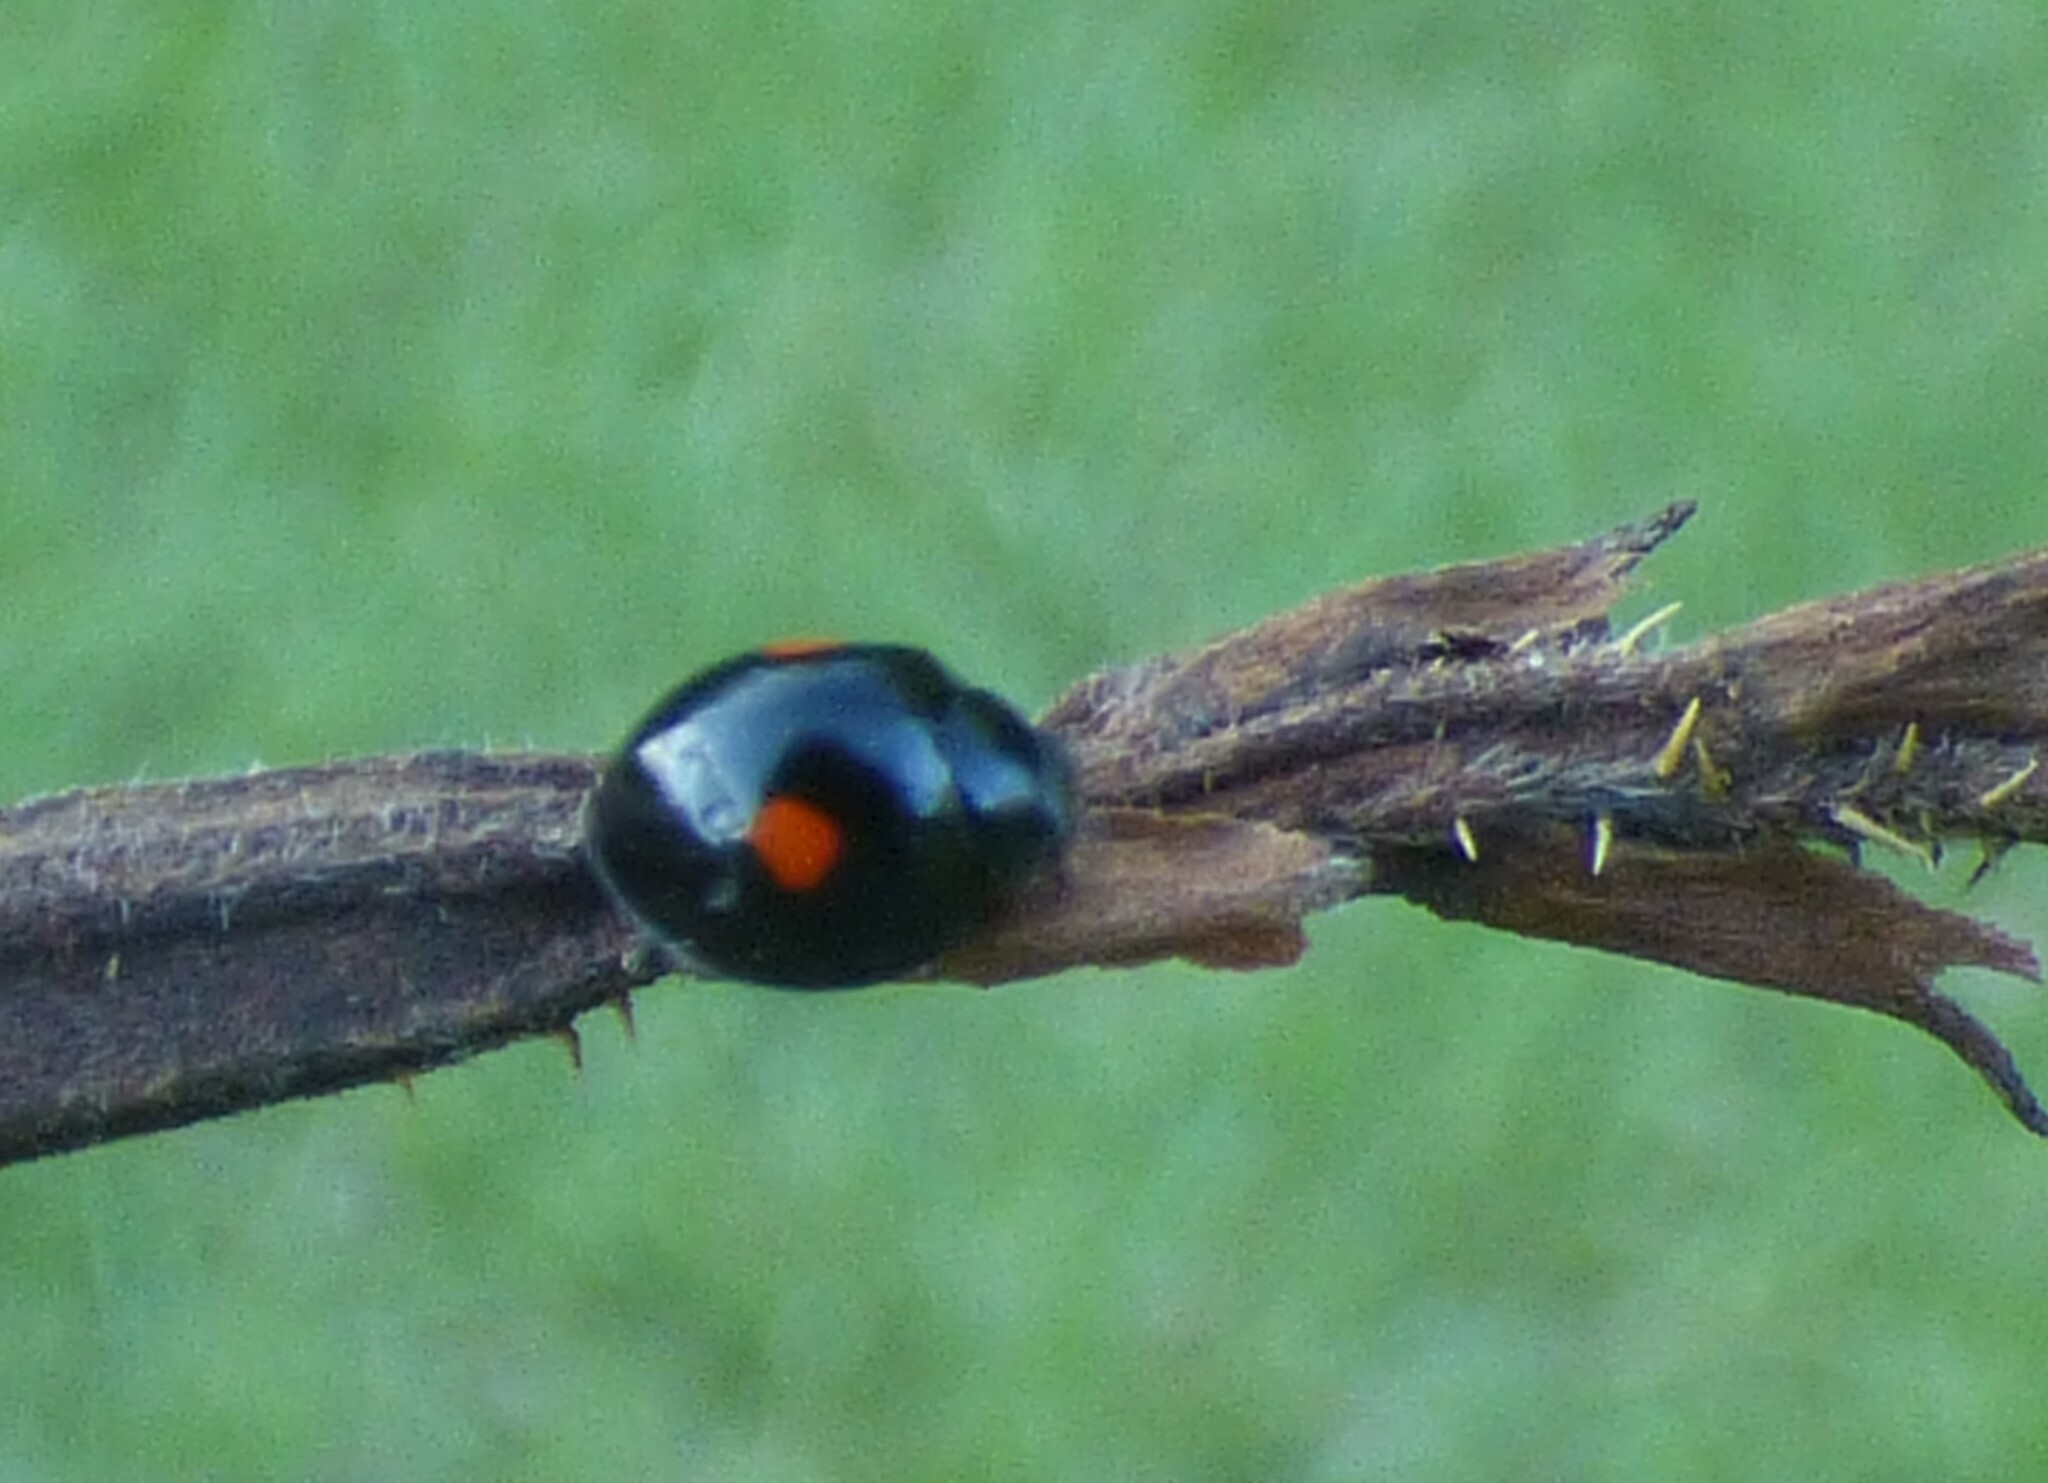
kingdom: Animalia
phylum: Arthropoda
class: Insecta
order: Coleoptera
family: Coccinellidae
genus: Chilocorus
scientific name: Chilocorus stigma
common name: Twicestabbed lady beetle
